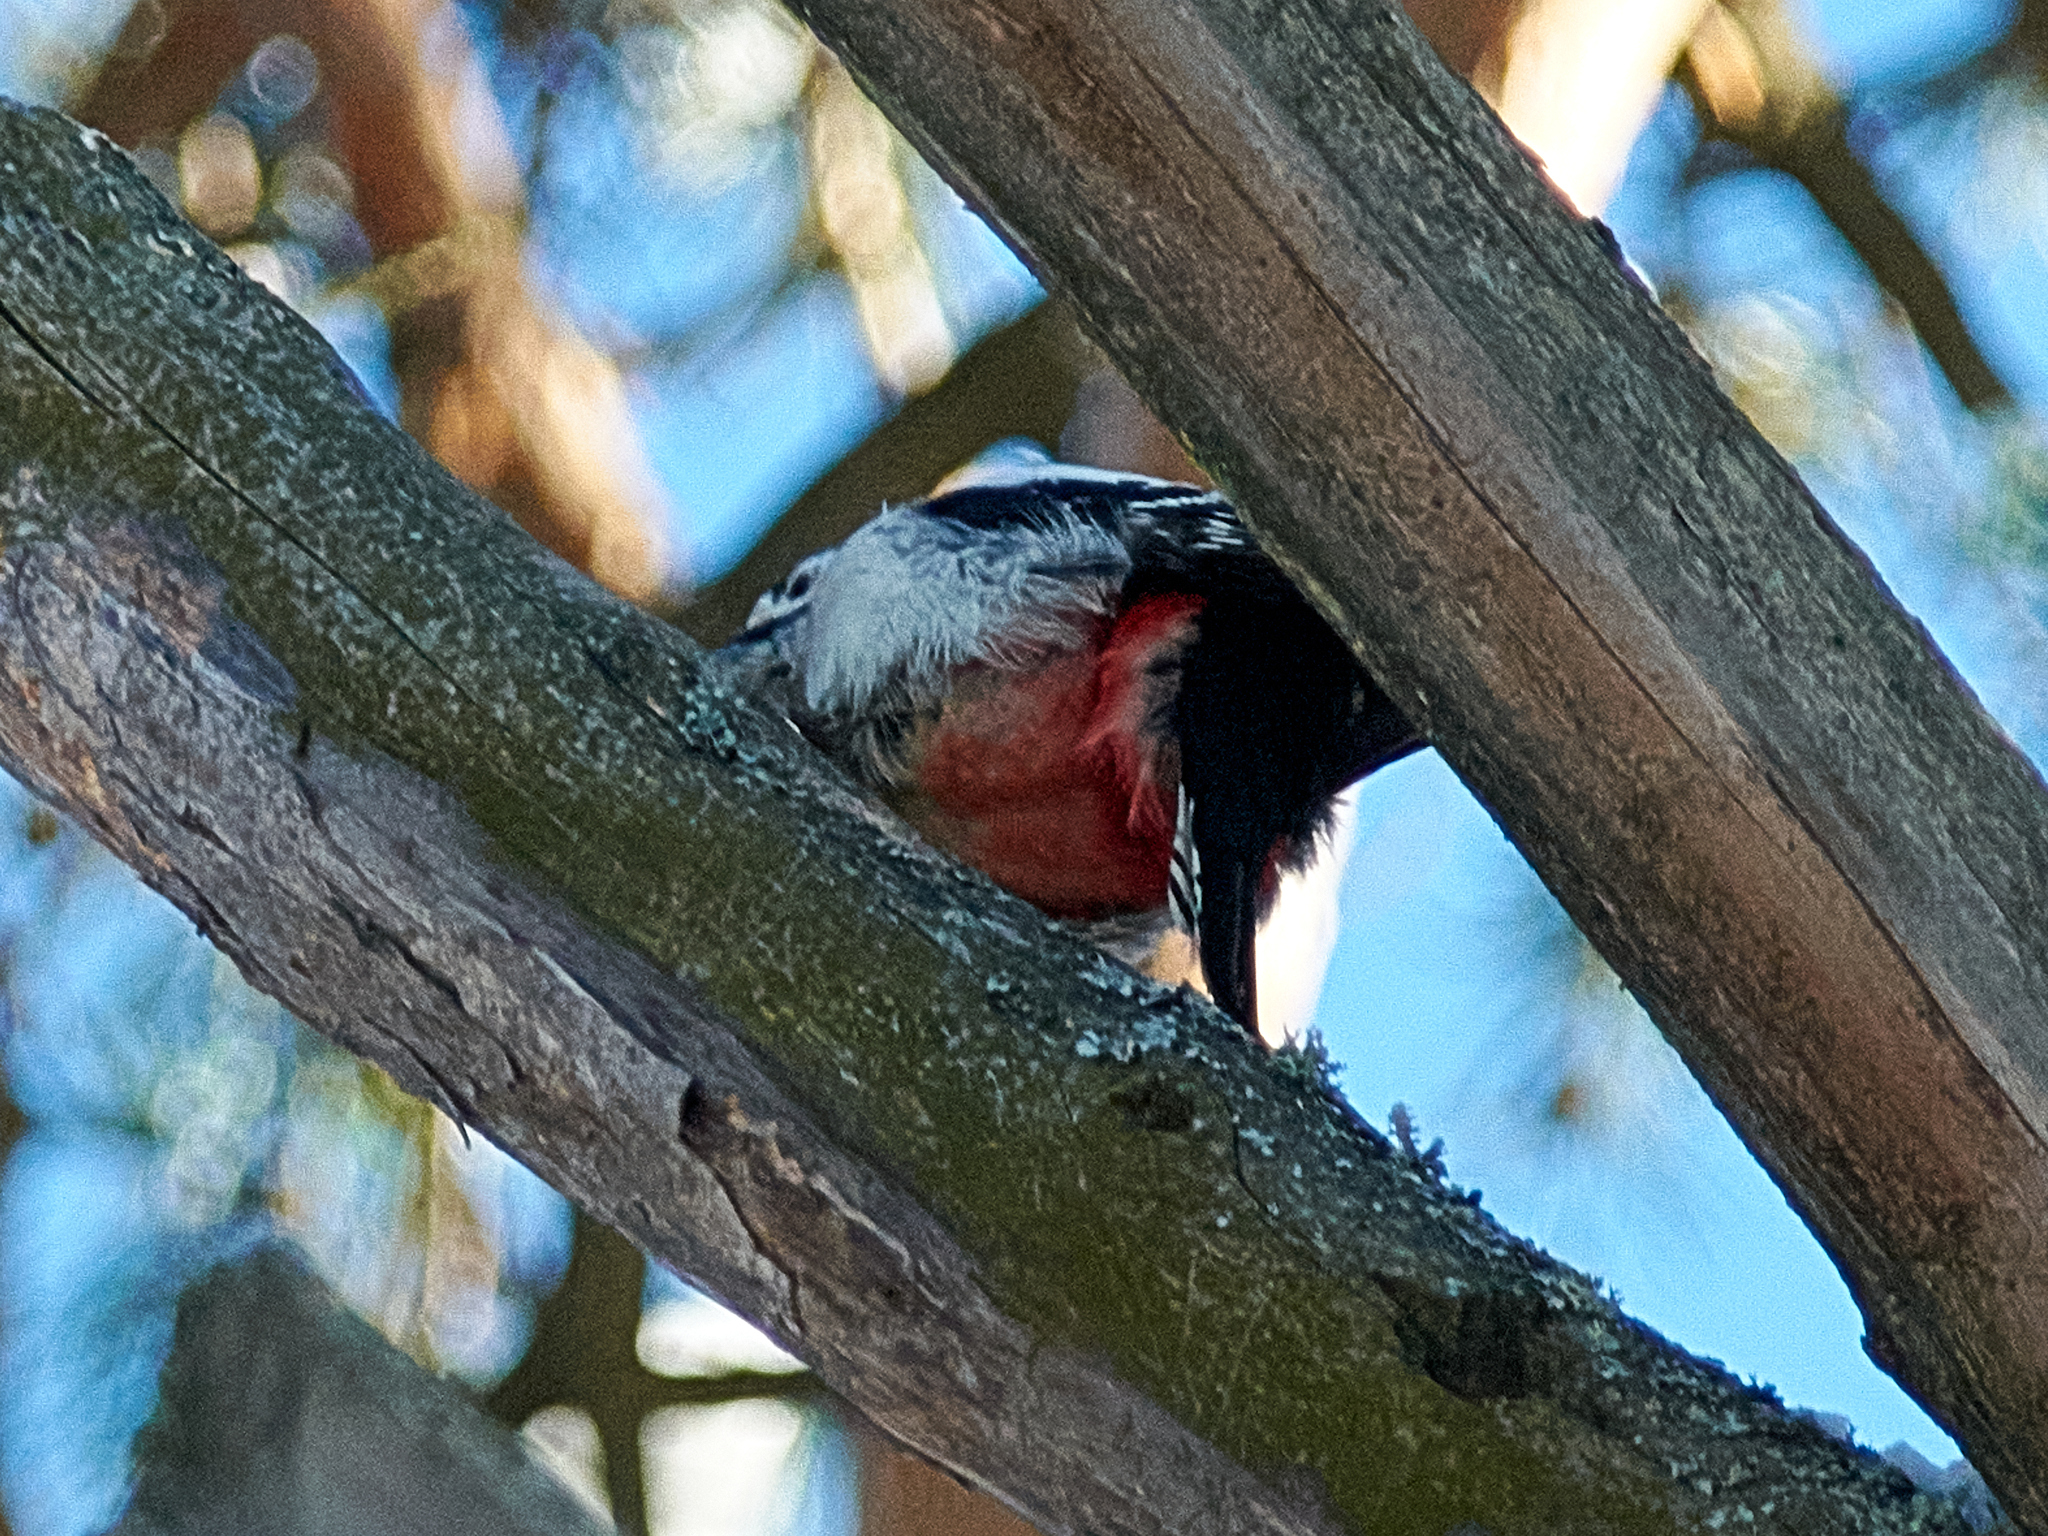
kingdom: Animalia
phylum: Chordata
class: Aves
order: Piciformes
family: Picidae
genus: Dendrocopos
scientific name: Dendrocopos major
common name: Great spotted woodpecker
